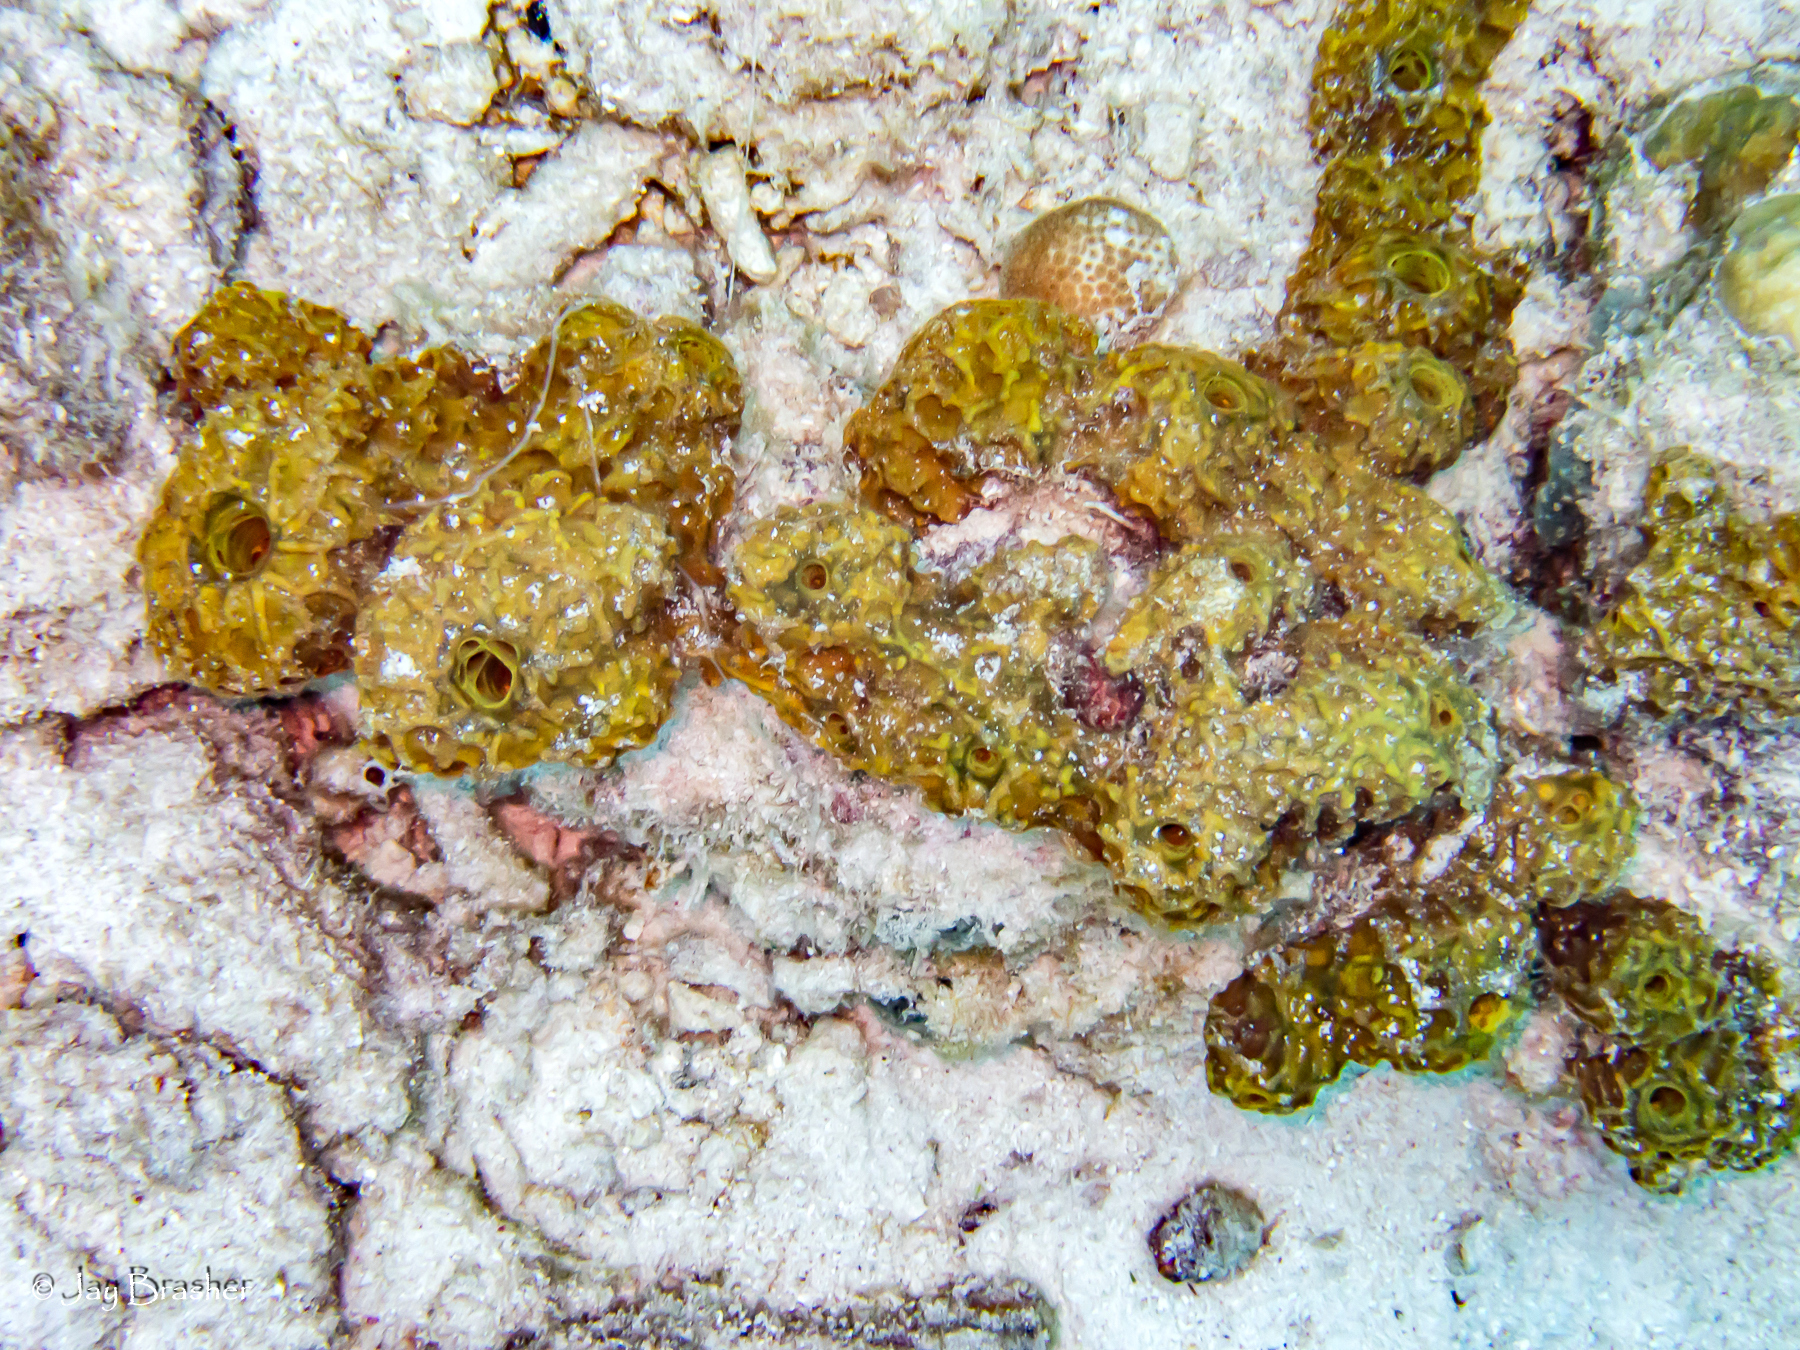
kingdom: Animalia
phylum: Porifera
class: Demospongiae
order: Verongiida
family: Aplysinidae
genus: Verongula
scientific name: Verongula rigida
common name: Pitted sponge
